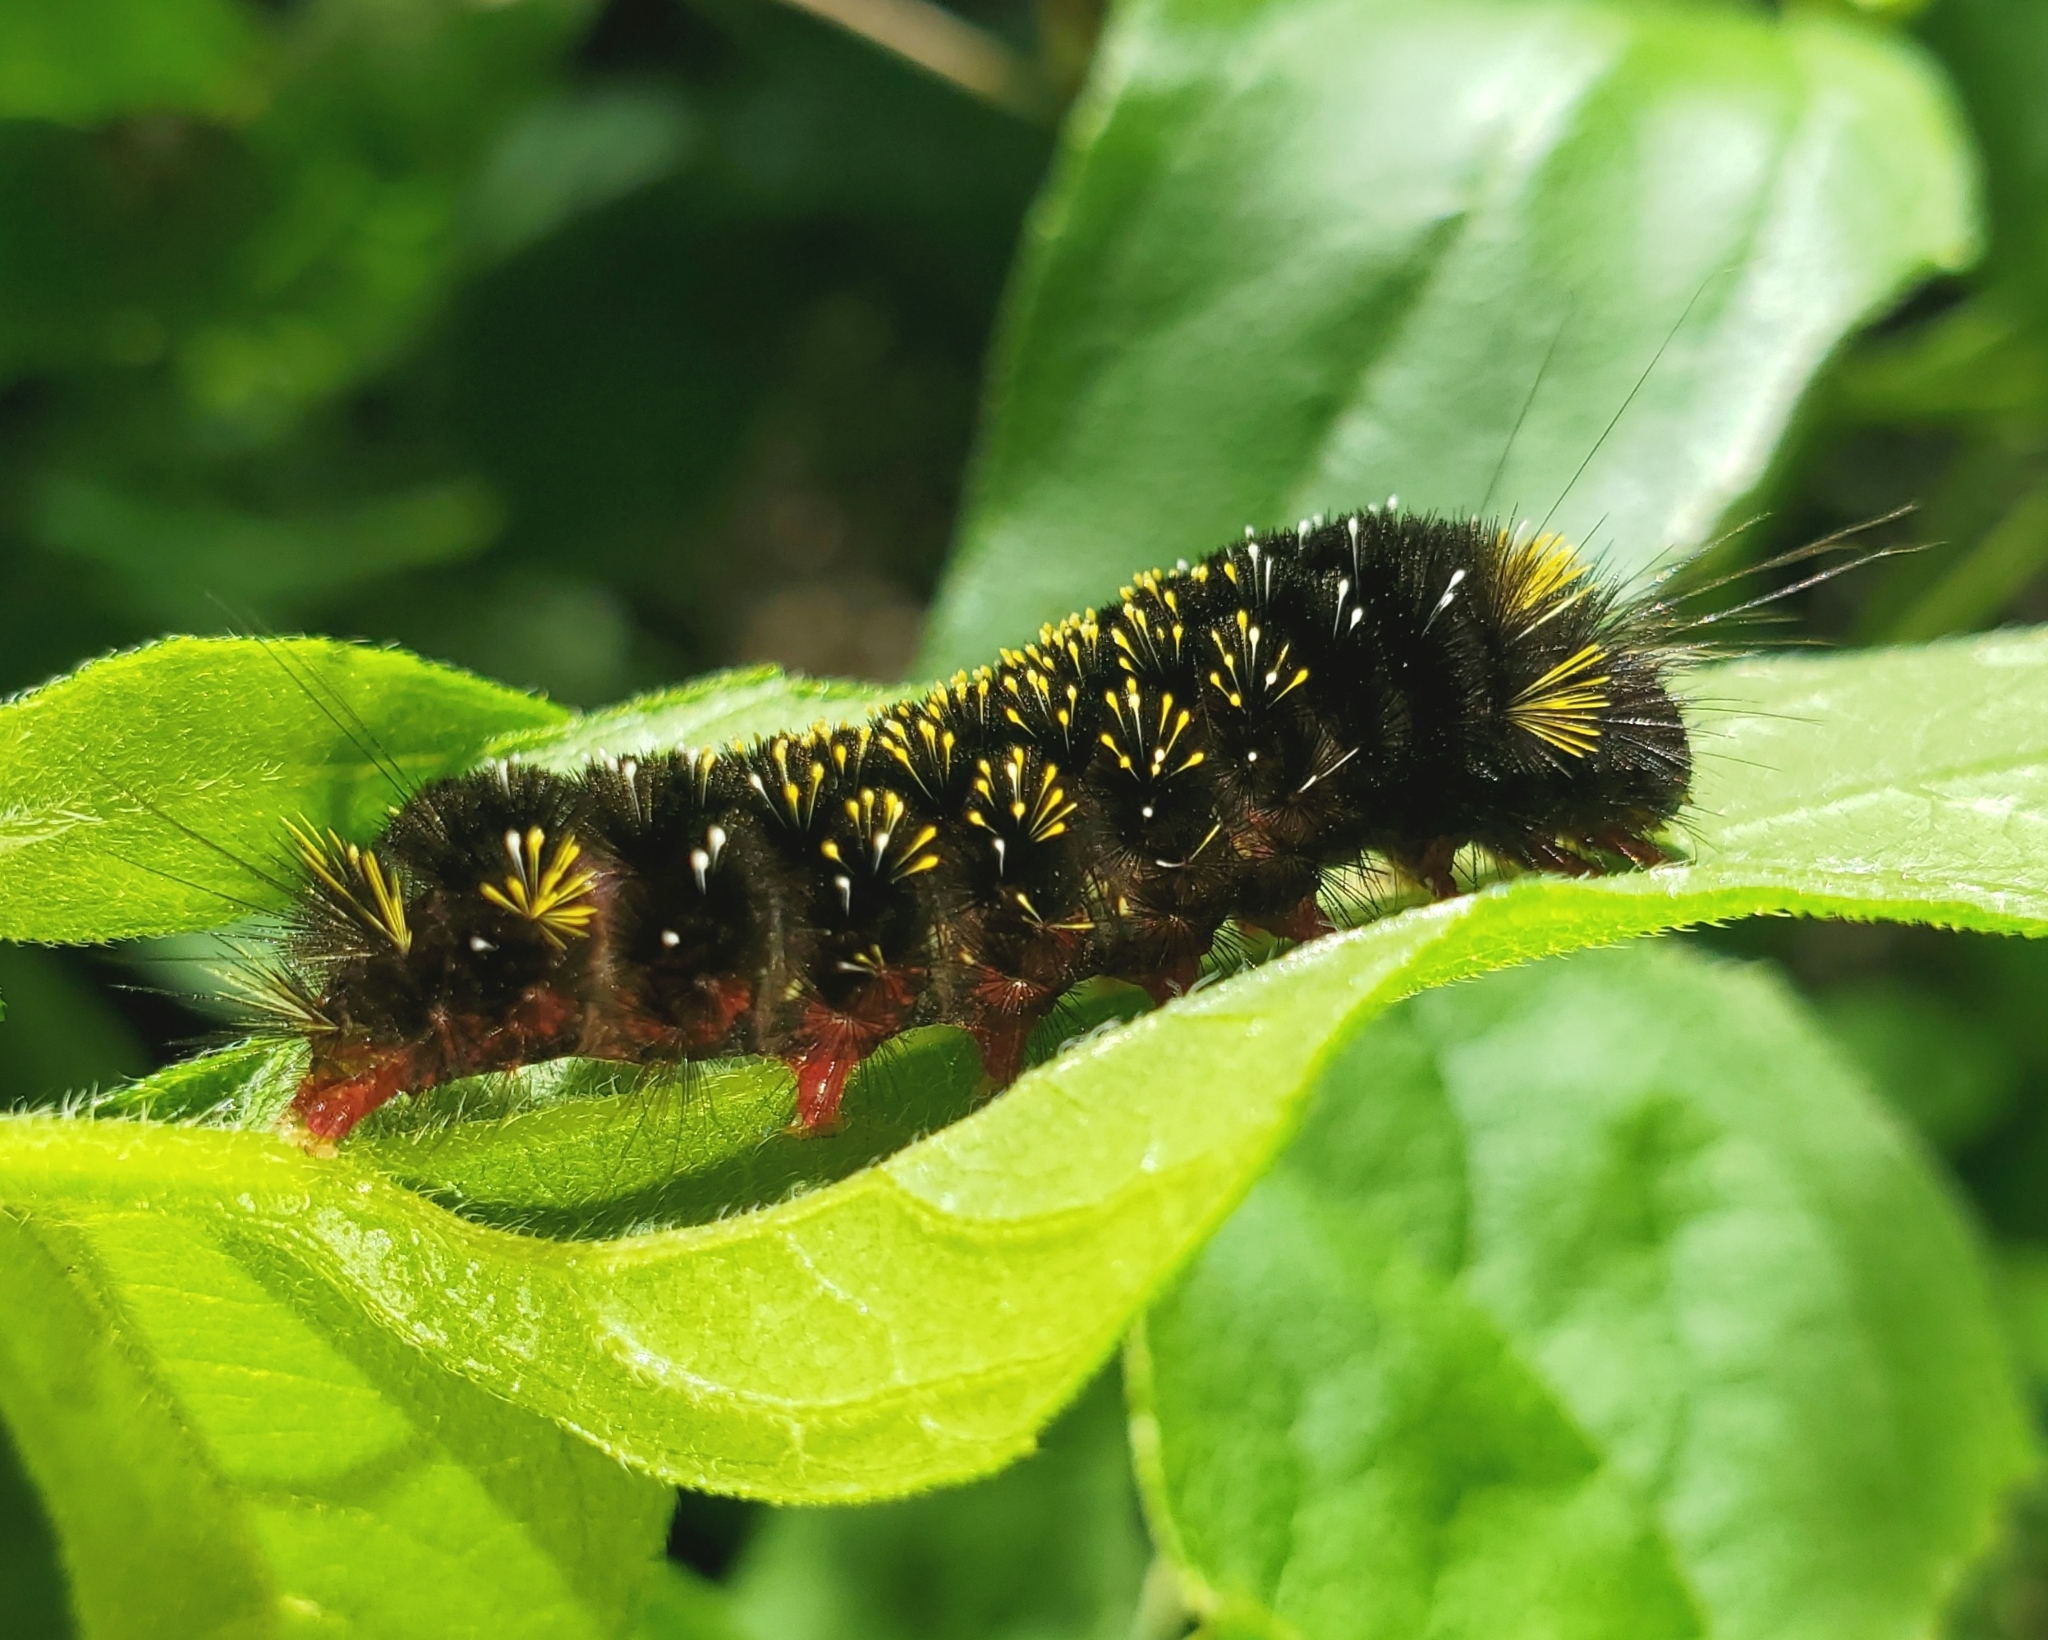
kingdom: Animalia
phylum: Arthropoda
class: Insecta
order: Lepidoptera
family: Erebidae
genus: Hypocrisias
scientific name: Hypocrisias minima
